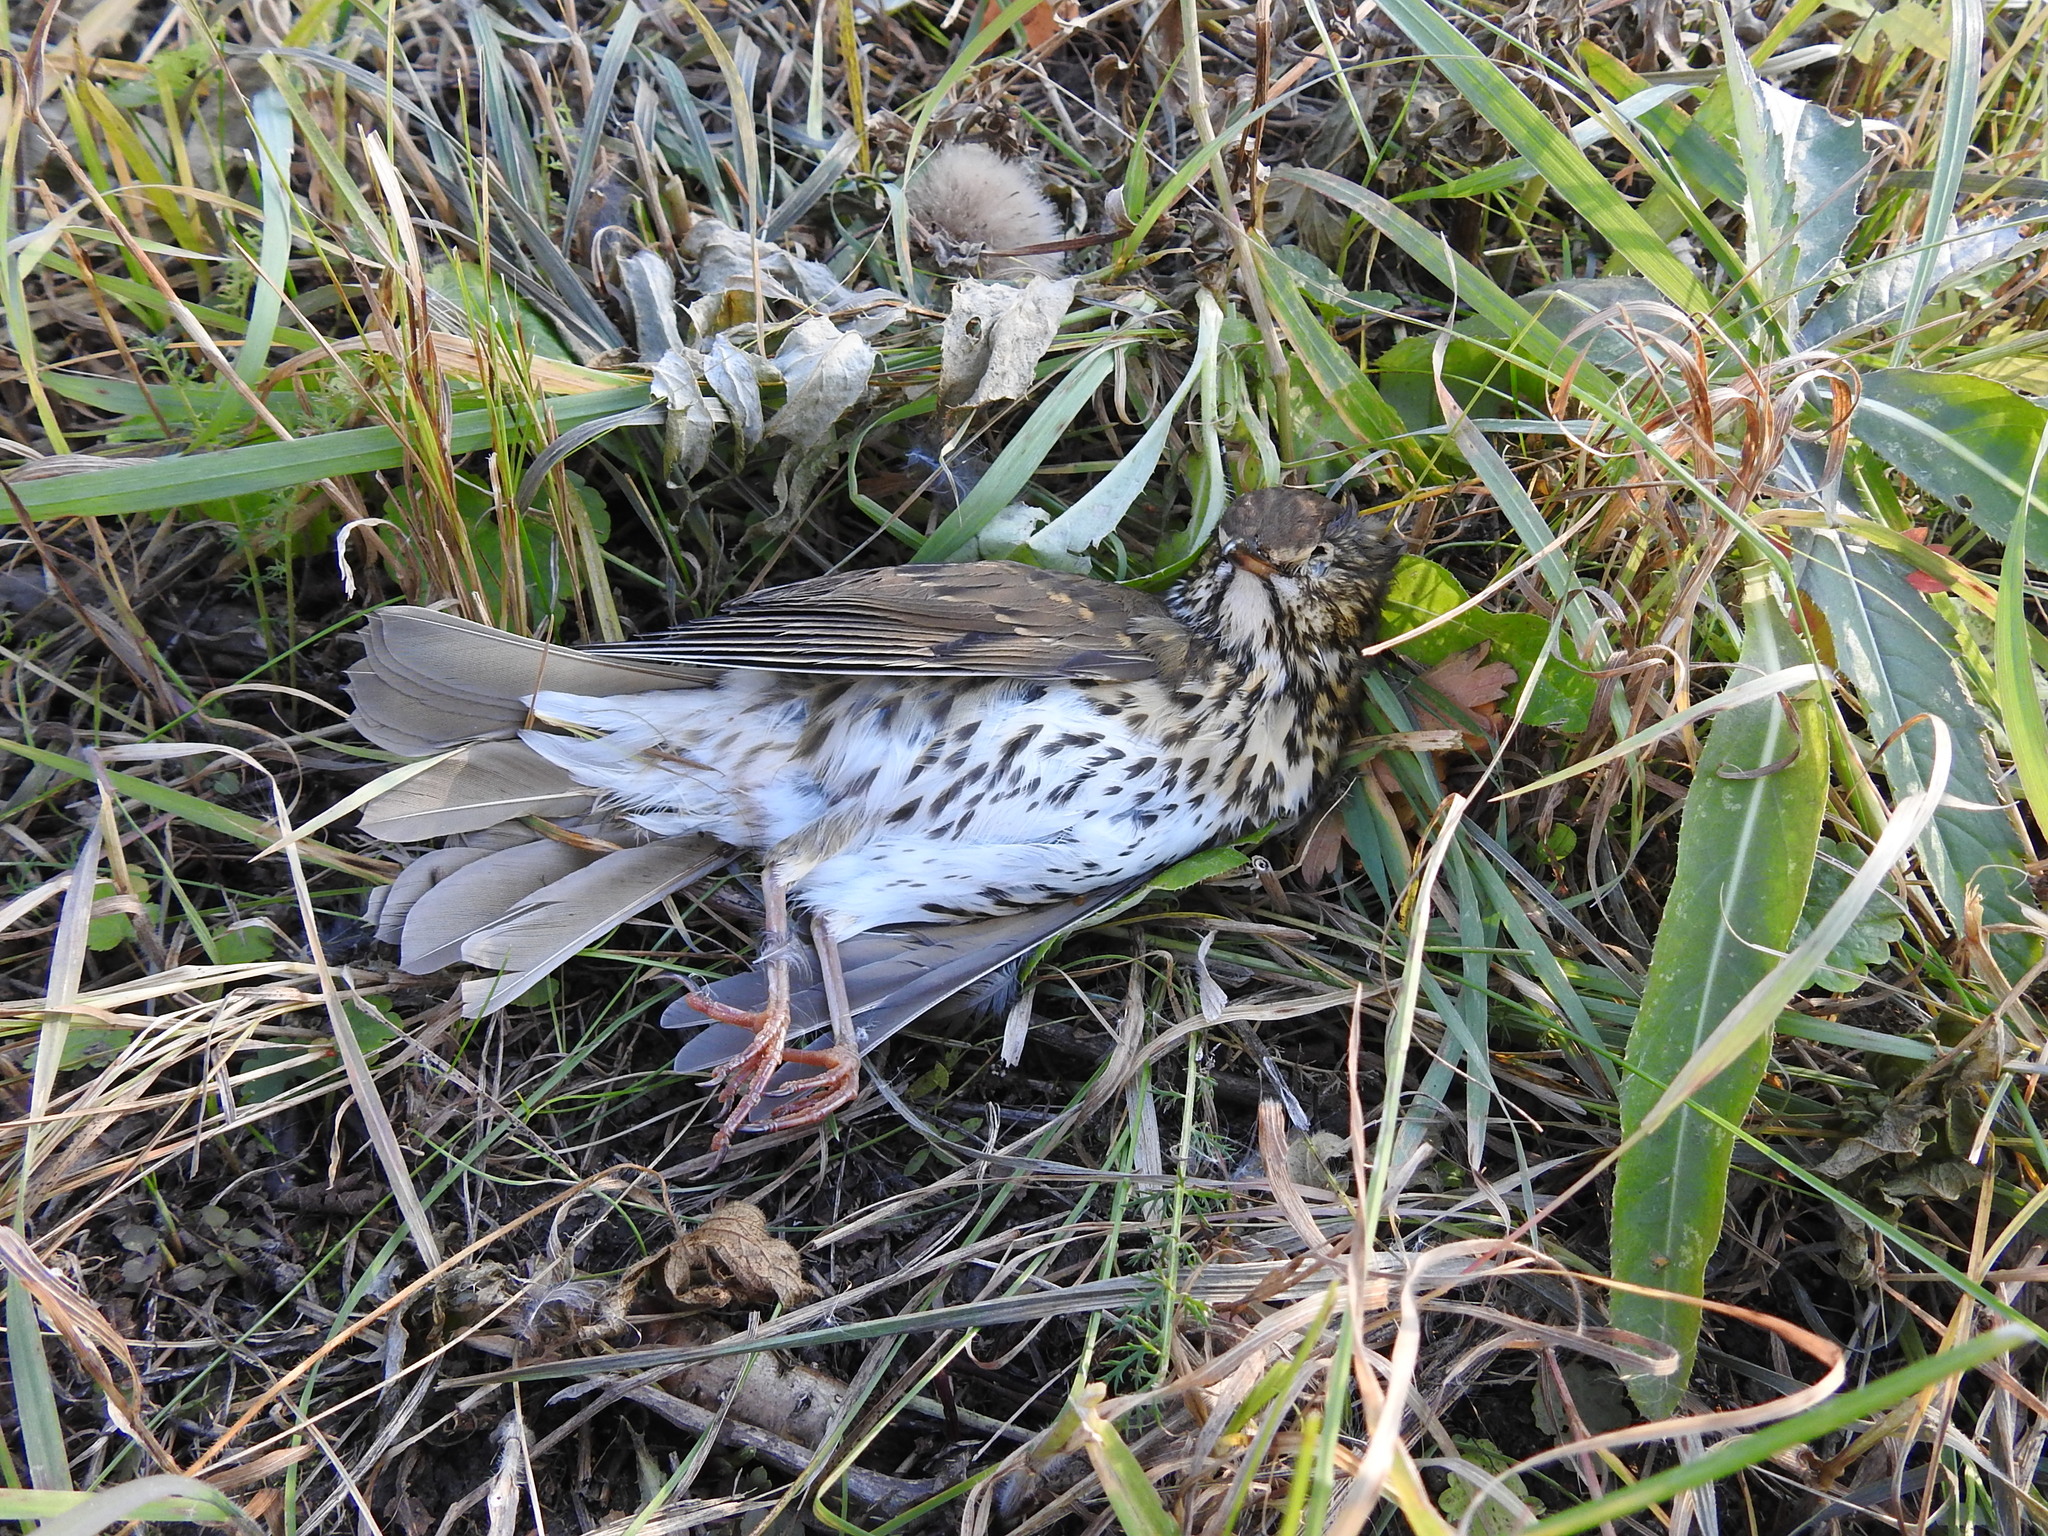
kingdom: Animalia
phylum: Chordata
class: Aves
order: Passeriformes
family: Turdidae
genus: Turdus
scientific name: Turdus philomelos
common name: Song thrush
